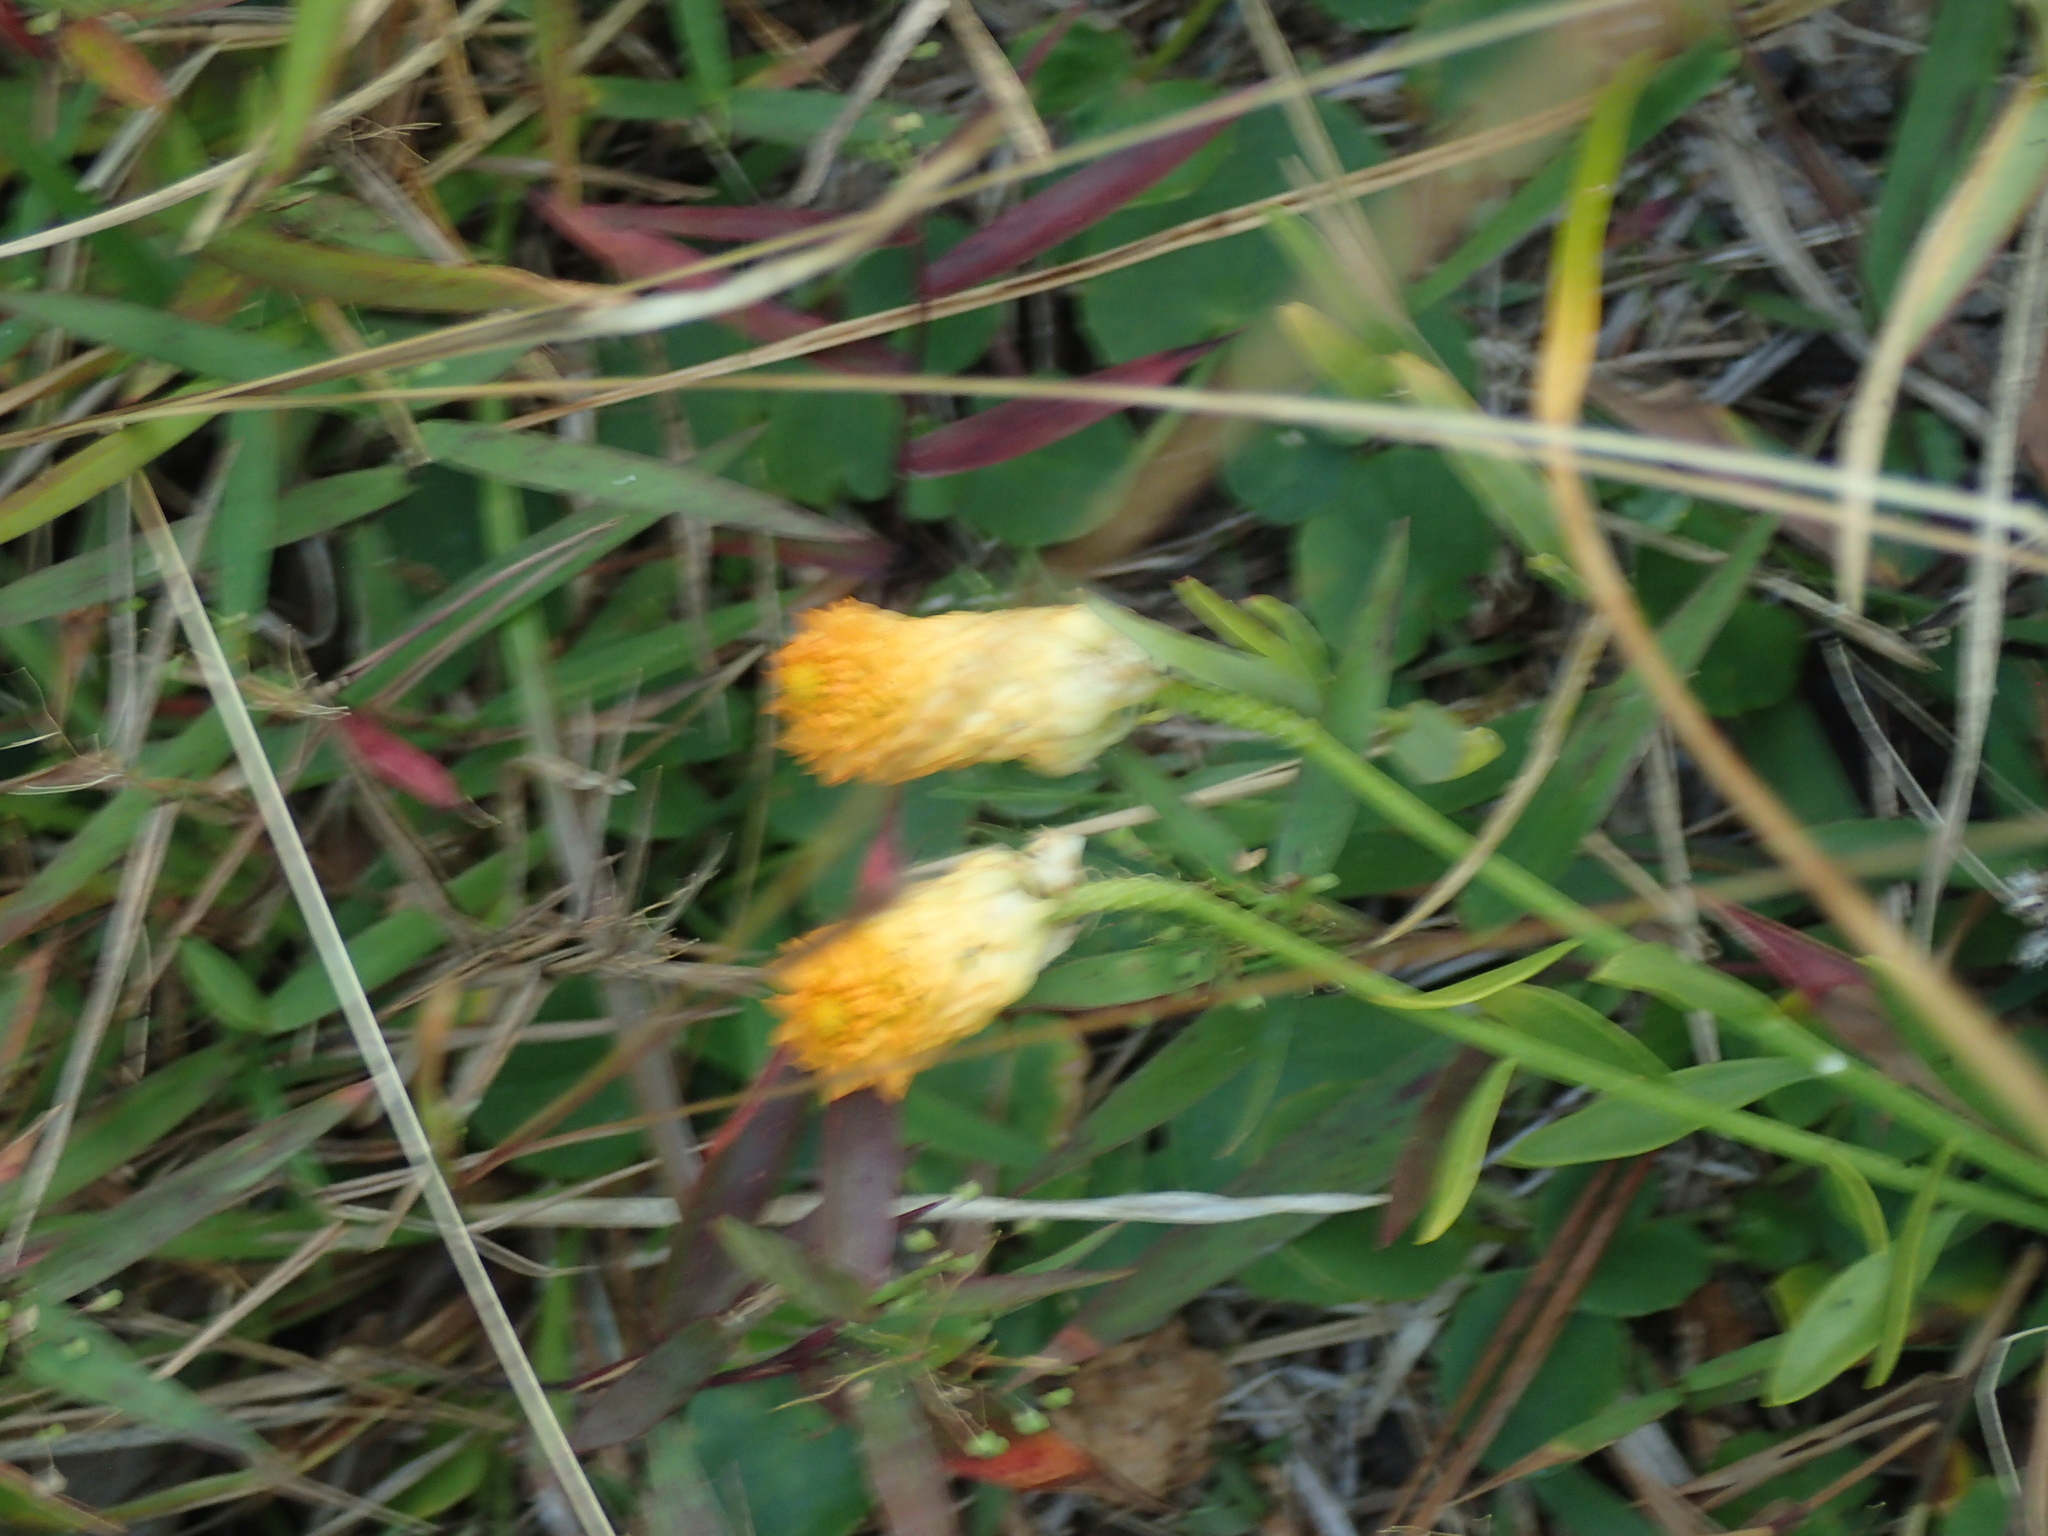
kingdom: Plantae
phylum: Tracheophyta
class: Magnoliopsida
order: Fabales
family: Polygalaceae
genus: Polygala
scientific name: Polygala lutea
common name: Orange milkwort
